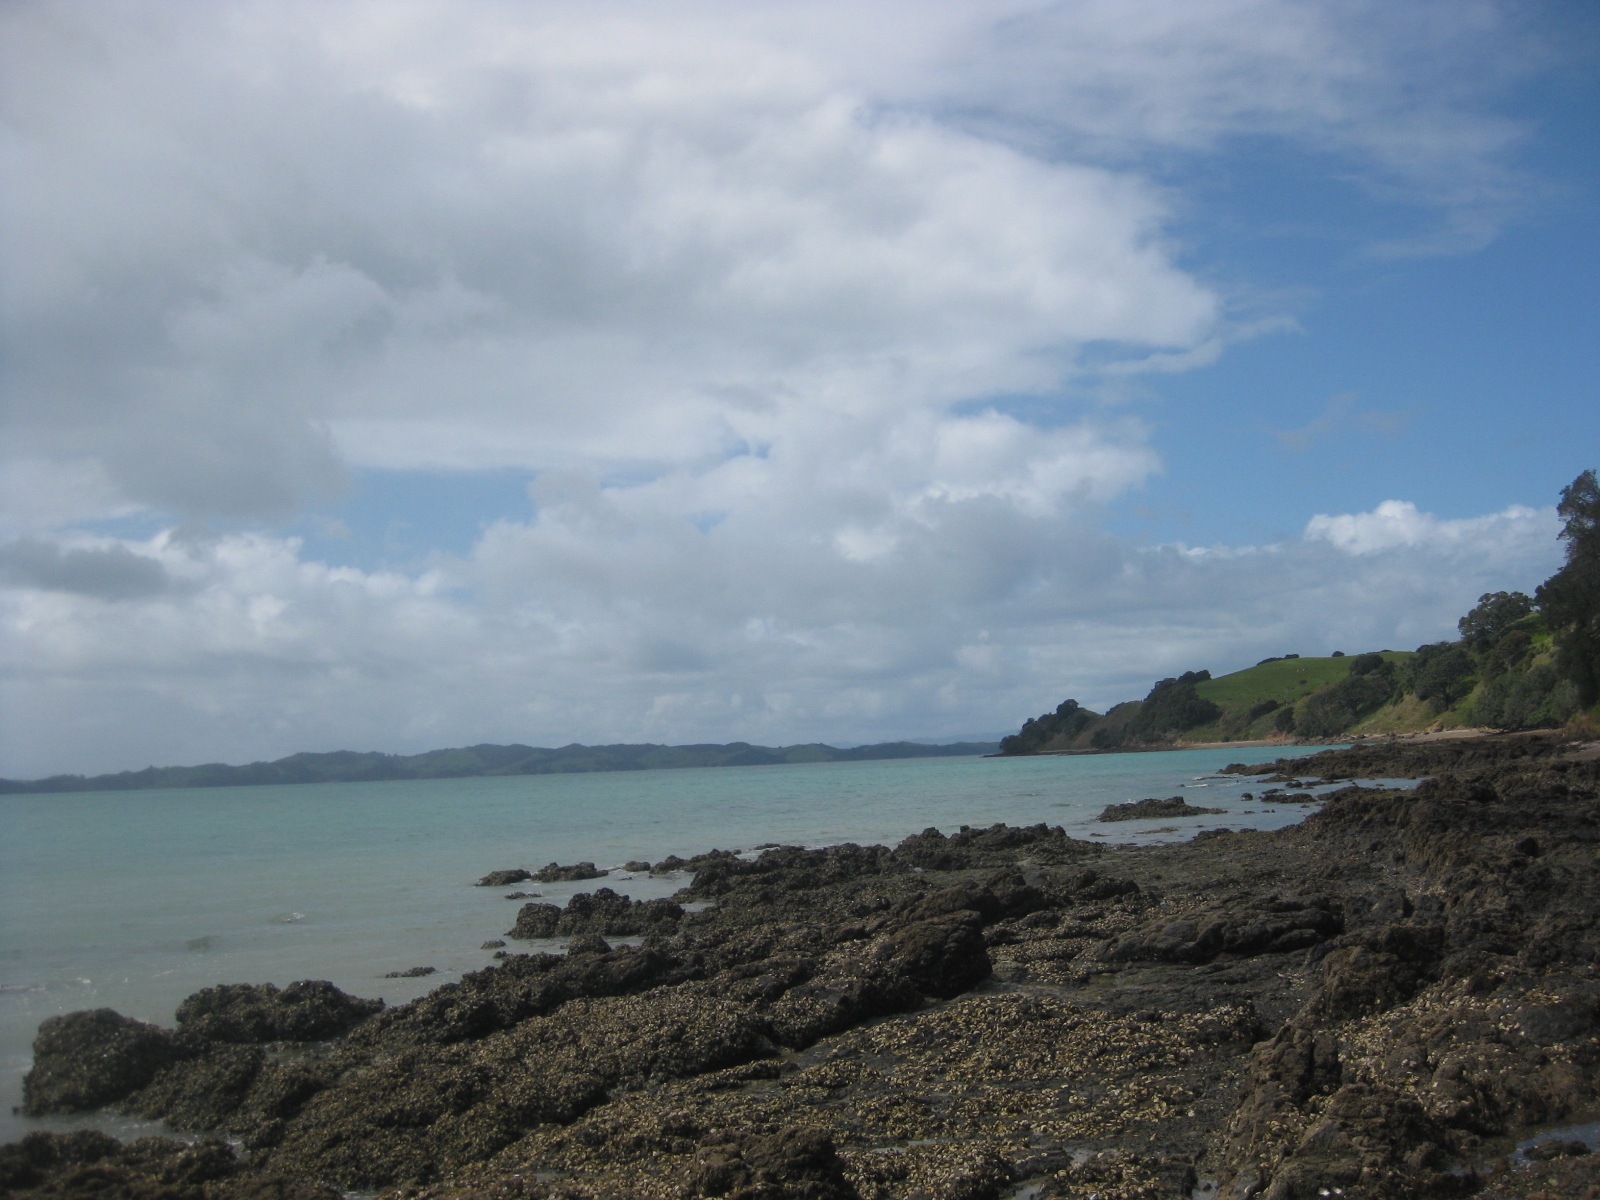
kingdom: Animalia
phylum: Mollusca
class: Gastropoda
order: Neogastropoda
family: Muricidae
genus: Haustrum
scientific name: Haustrum scobina
